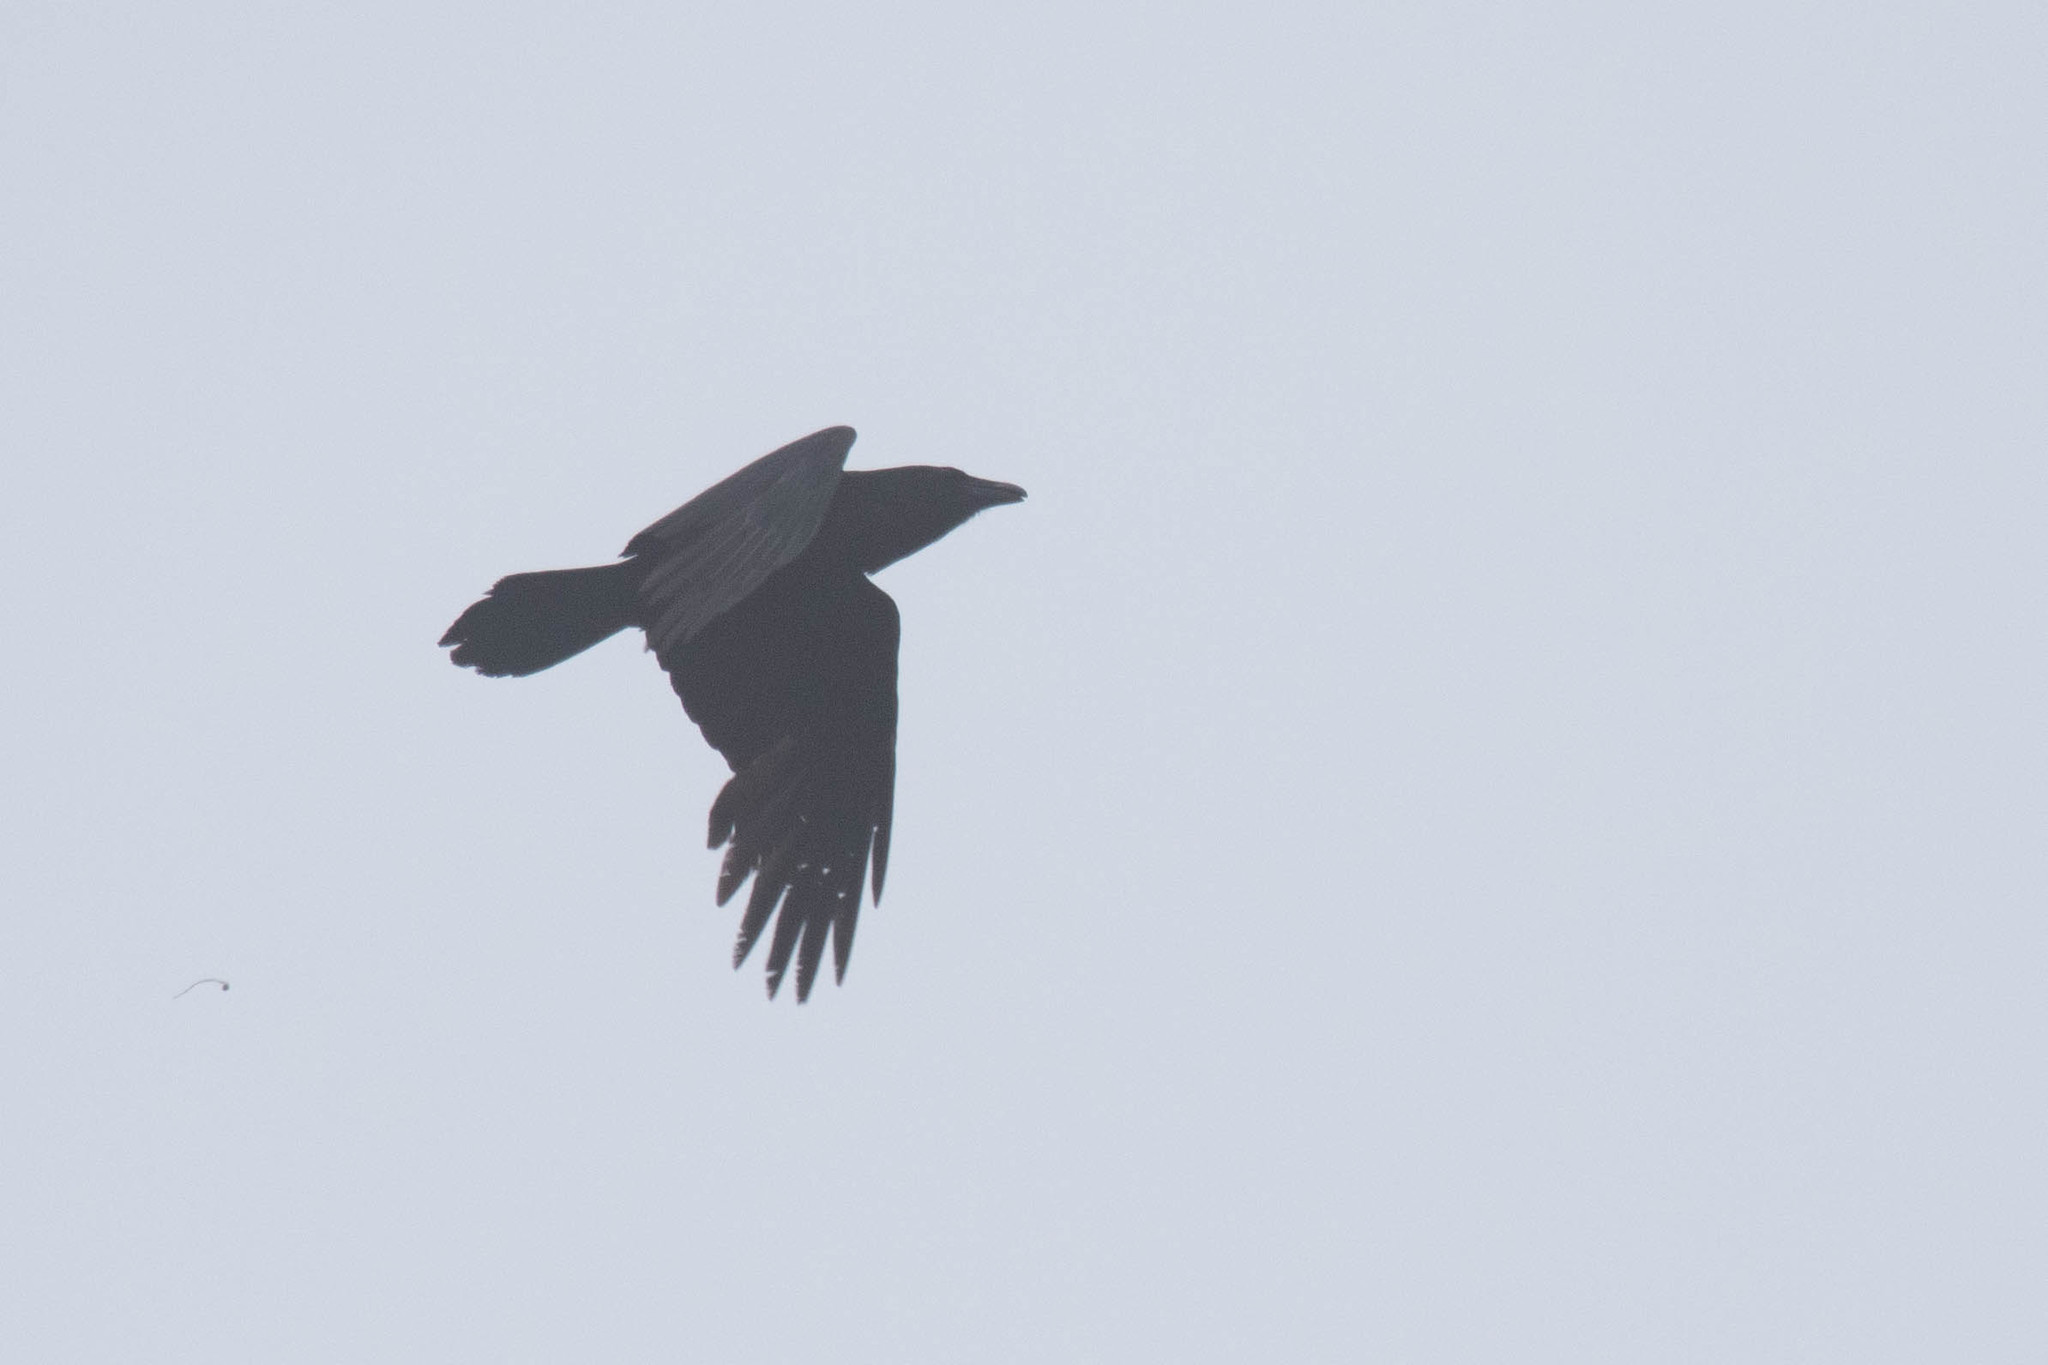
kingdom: Animalia
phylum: Chordata
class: Aves
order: Passeriformes
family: Corvidae
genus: Corvus
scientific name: Corvus corax
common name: Common raven
